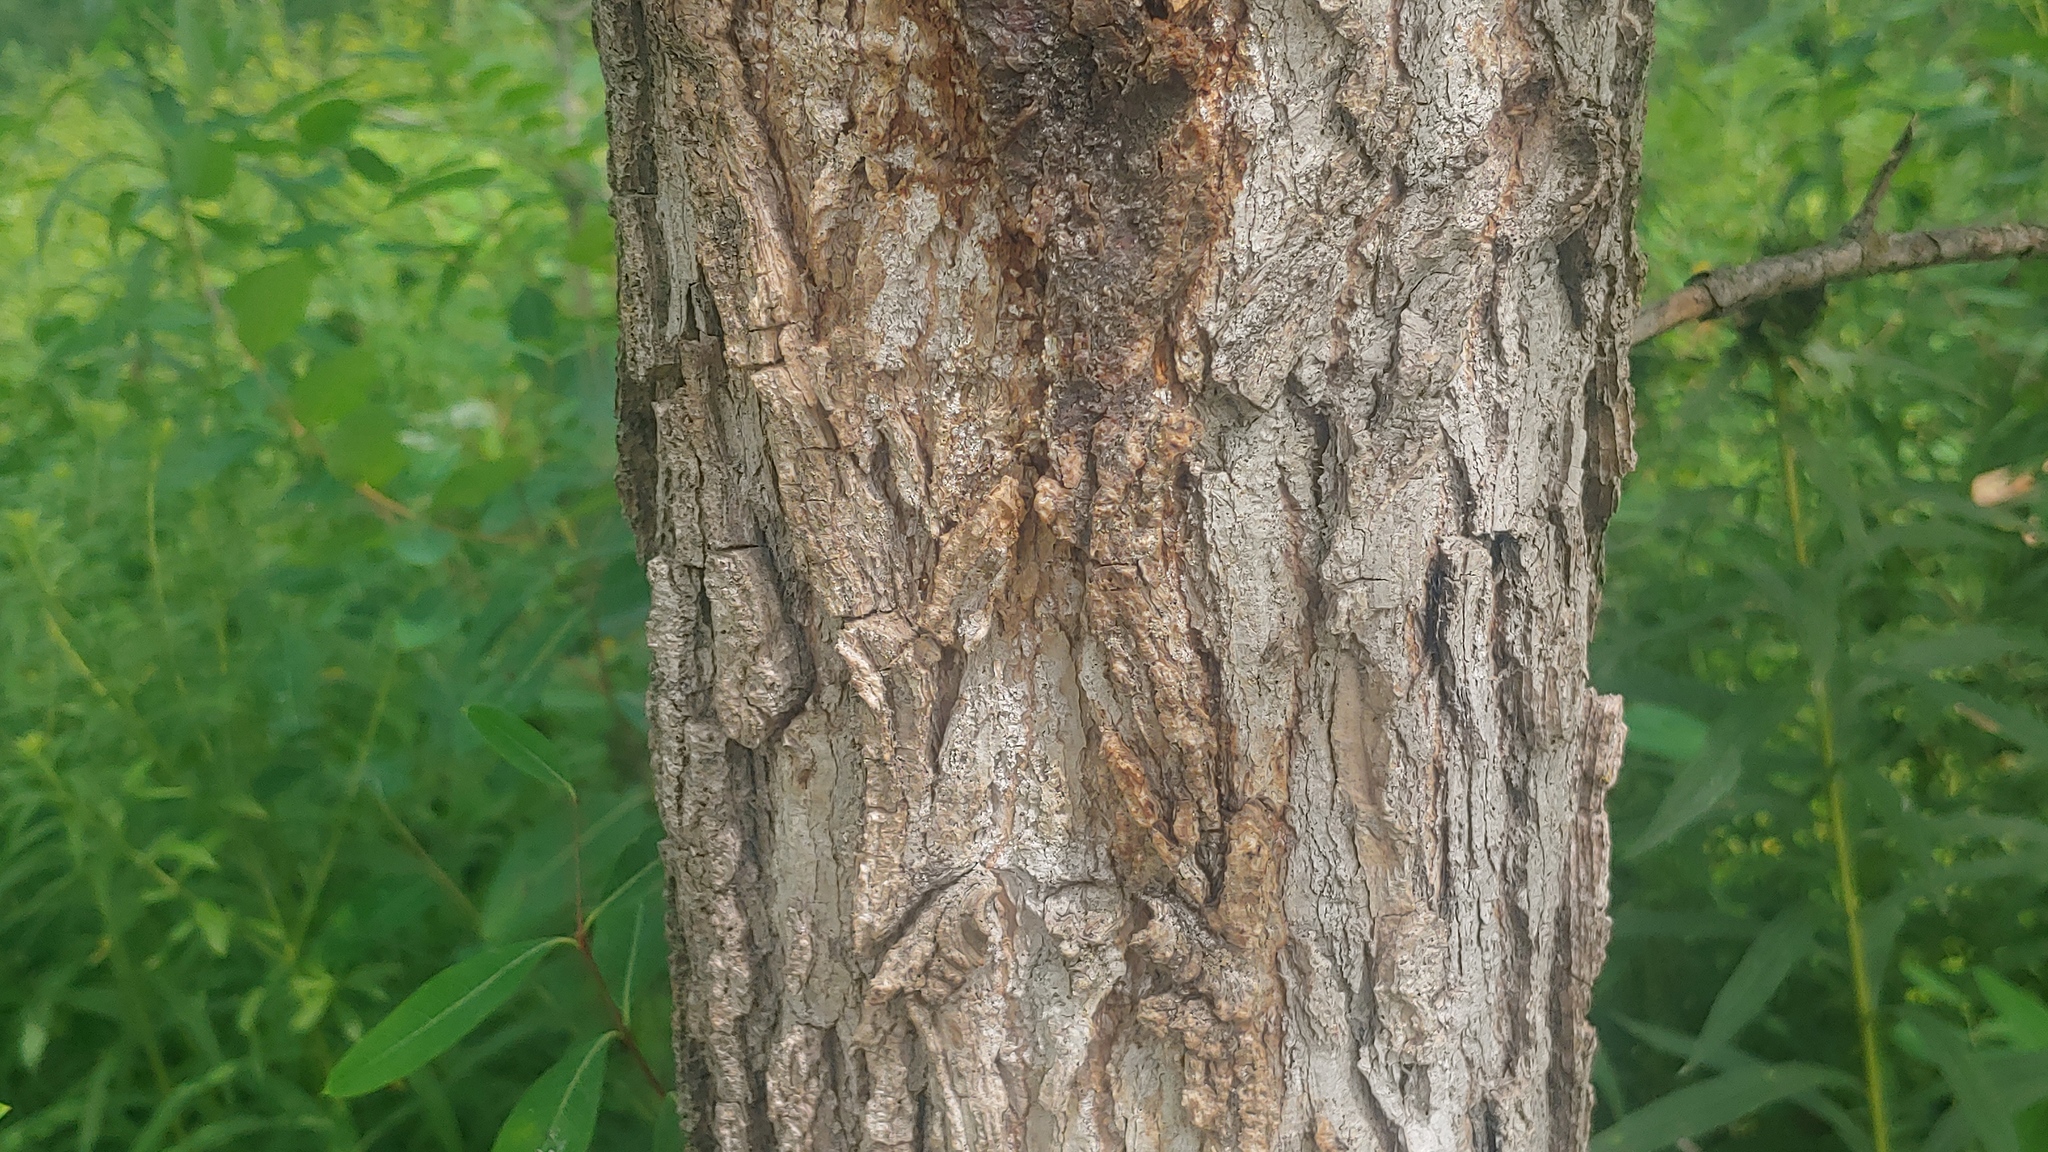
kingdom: Plantae
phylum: Tracheophyta
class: Magnoliopsida
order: Malpighiales
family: Salicaceae
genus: Populus
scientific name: Populus deltoides
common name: Eastern cottonwood
